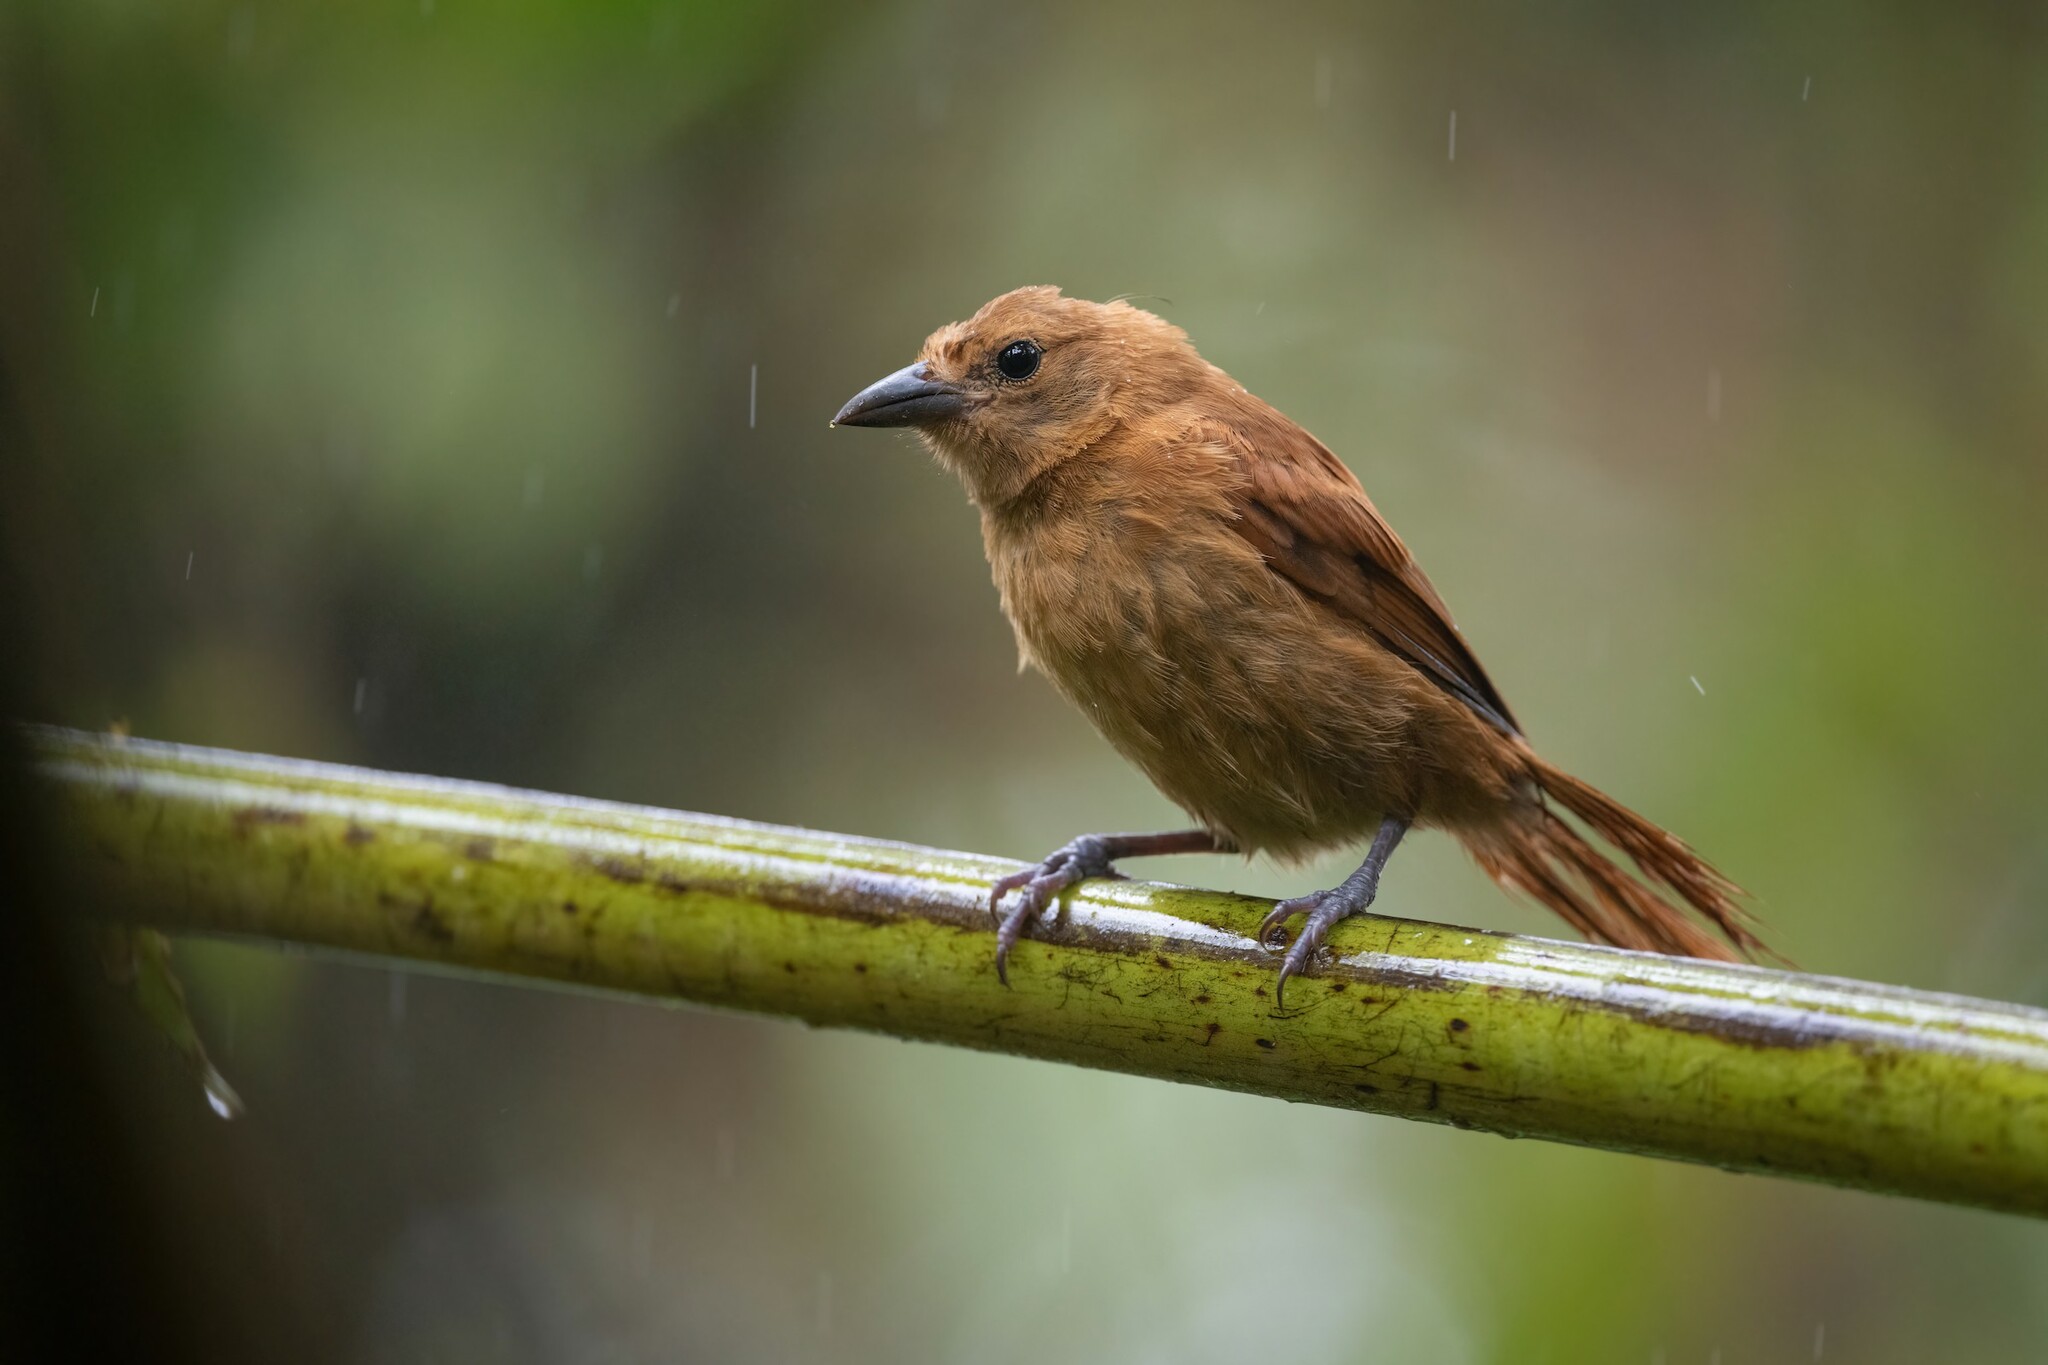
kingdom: Animalia
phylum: Chordata
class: Aves
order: Passeriformes
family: Thraupidae
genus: Tachyphonus
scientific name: Tachyphonus rufus
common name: White-lined tanager
